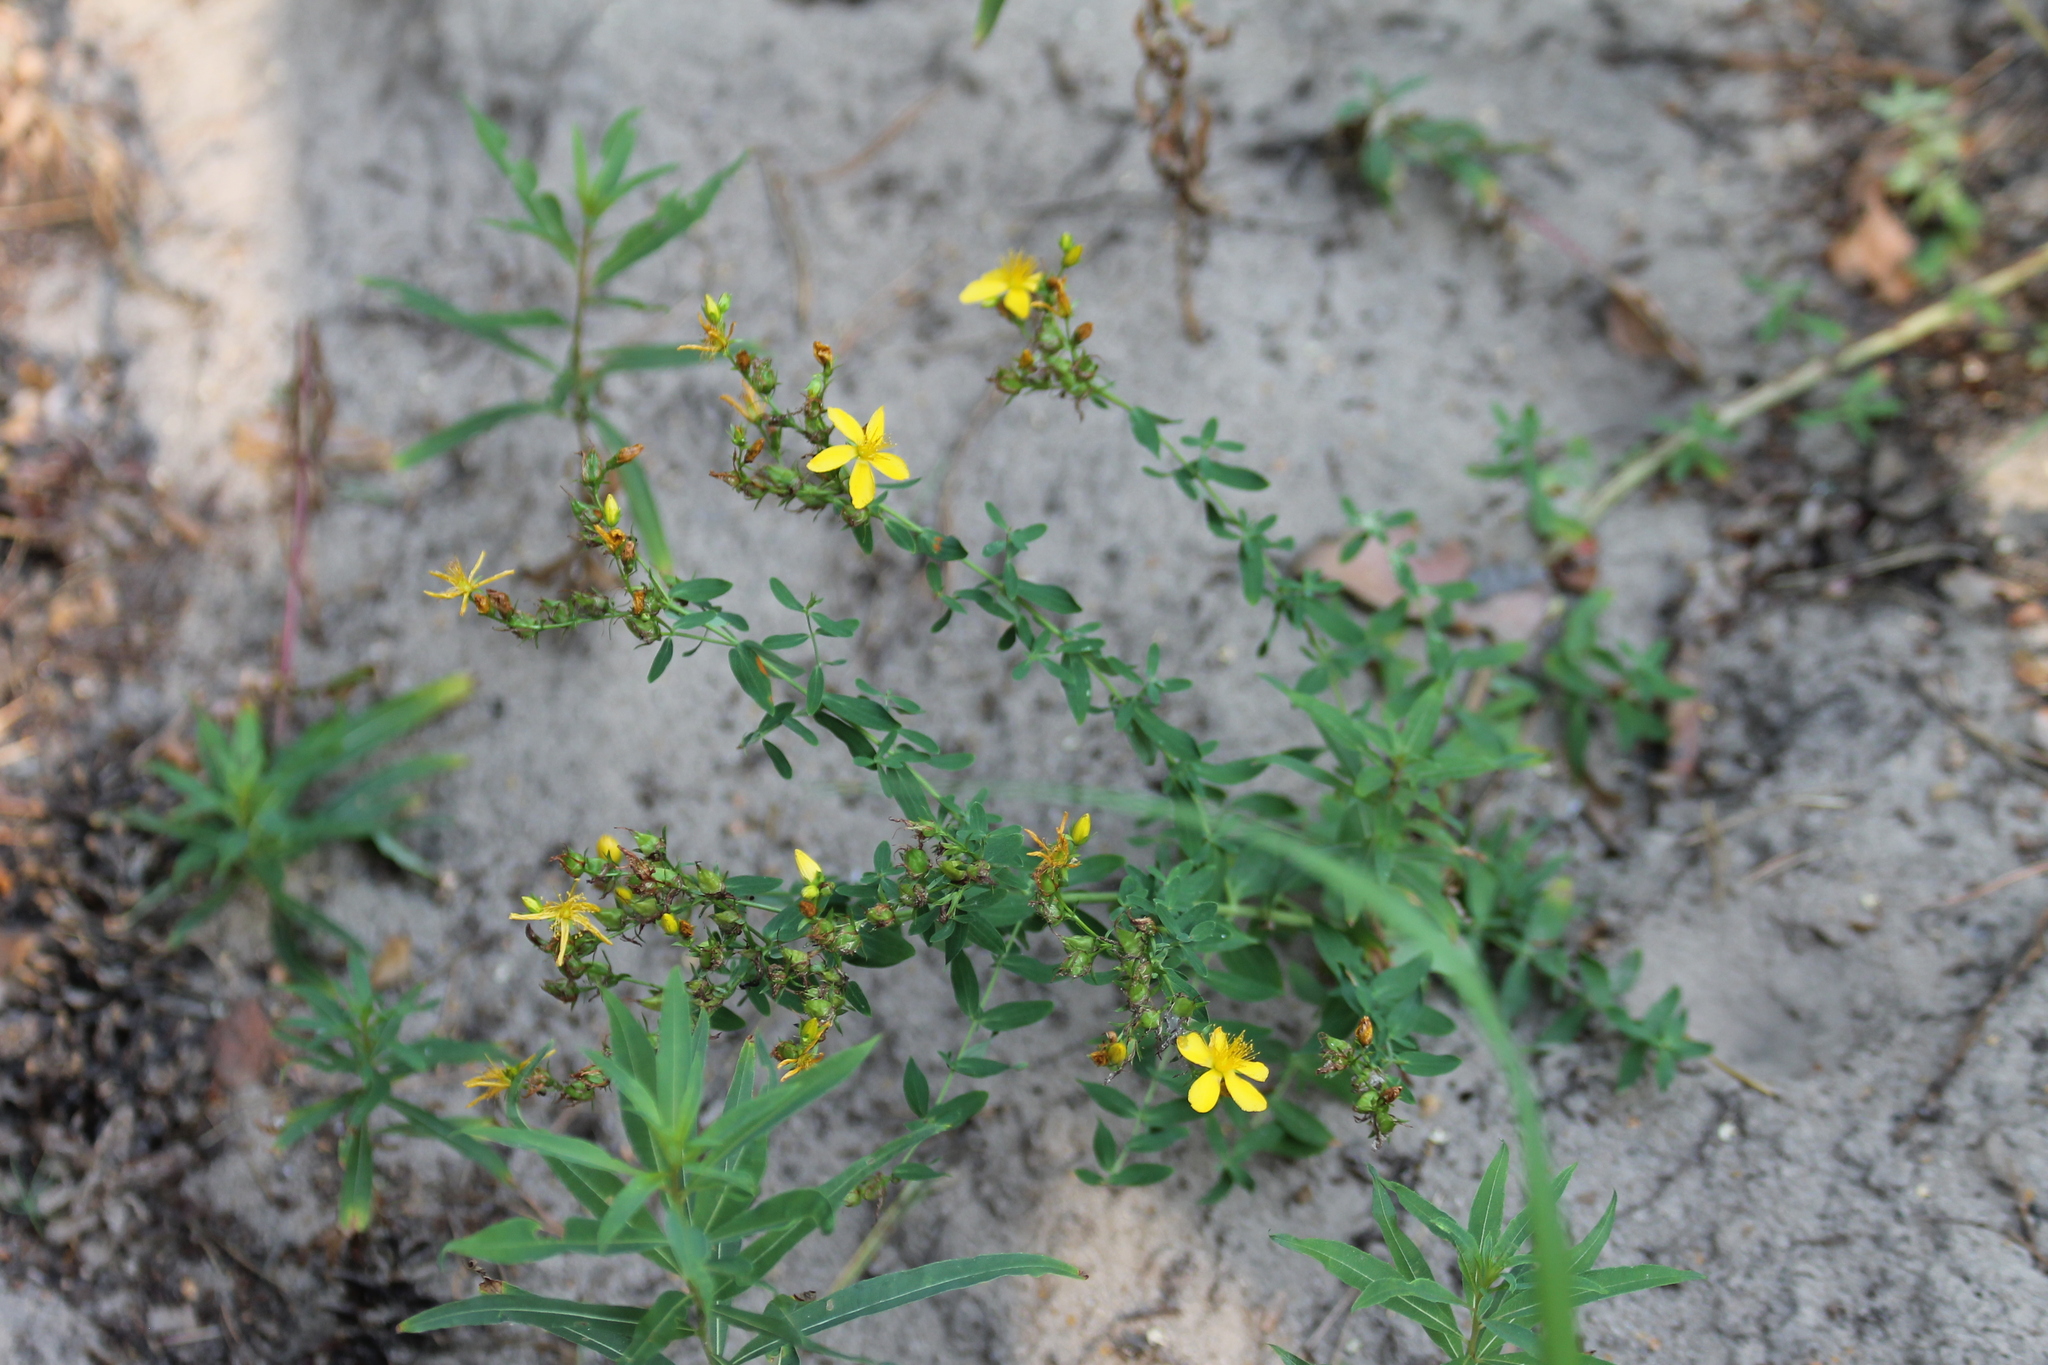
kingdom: Plantae
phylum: Tracheophyta
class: Magnoliopsida
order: Malpighiales
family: Hypericaceae
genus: Hypericum
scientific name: Hypericum perforatum
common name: Common st. johnswort
